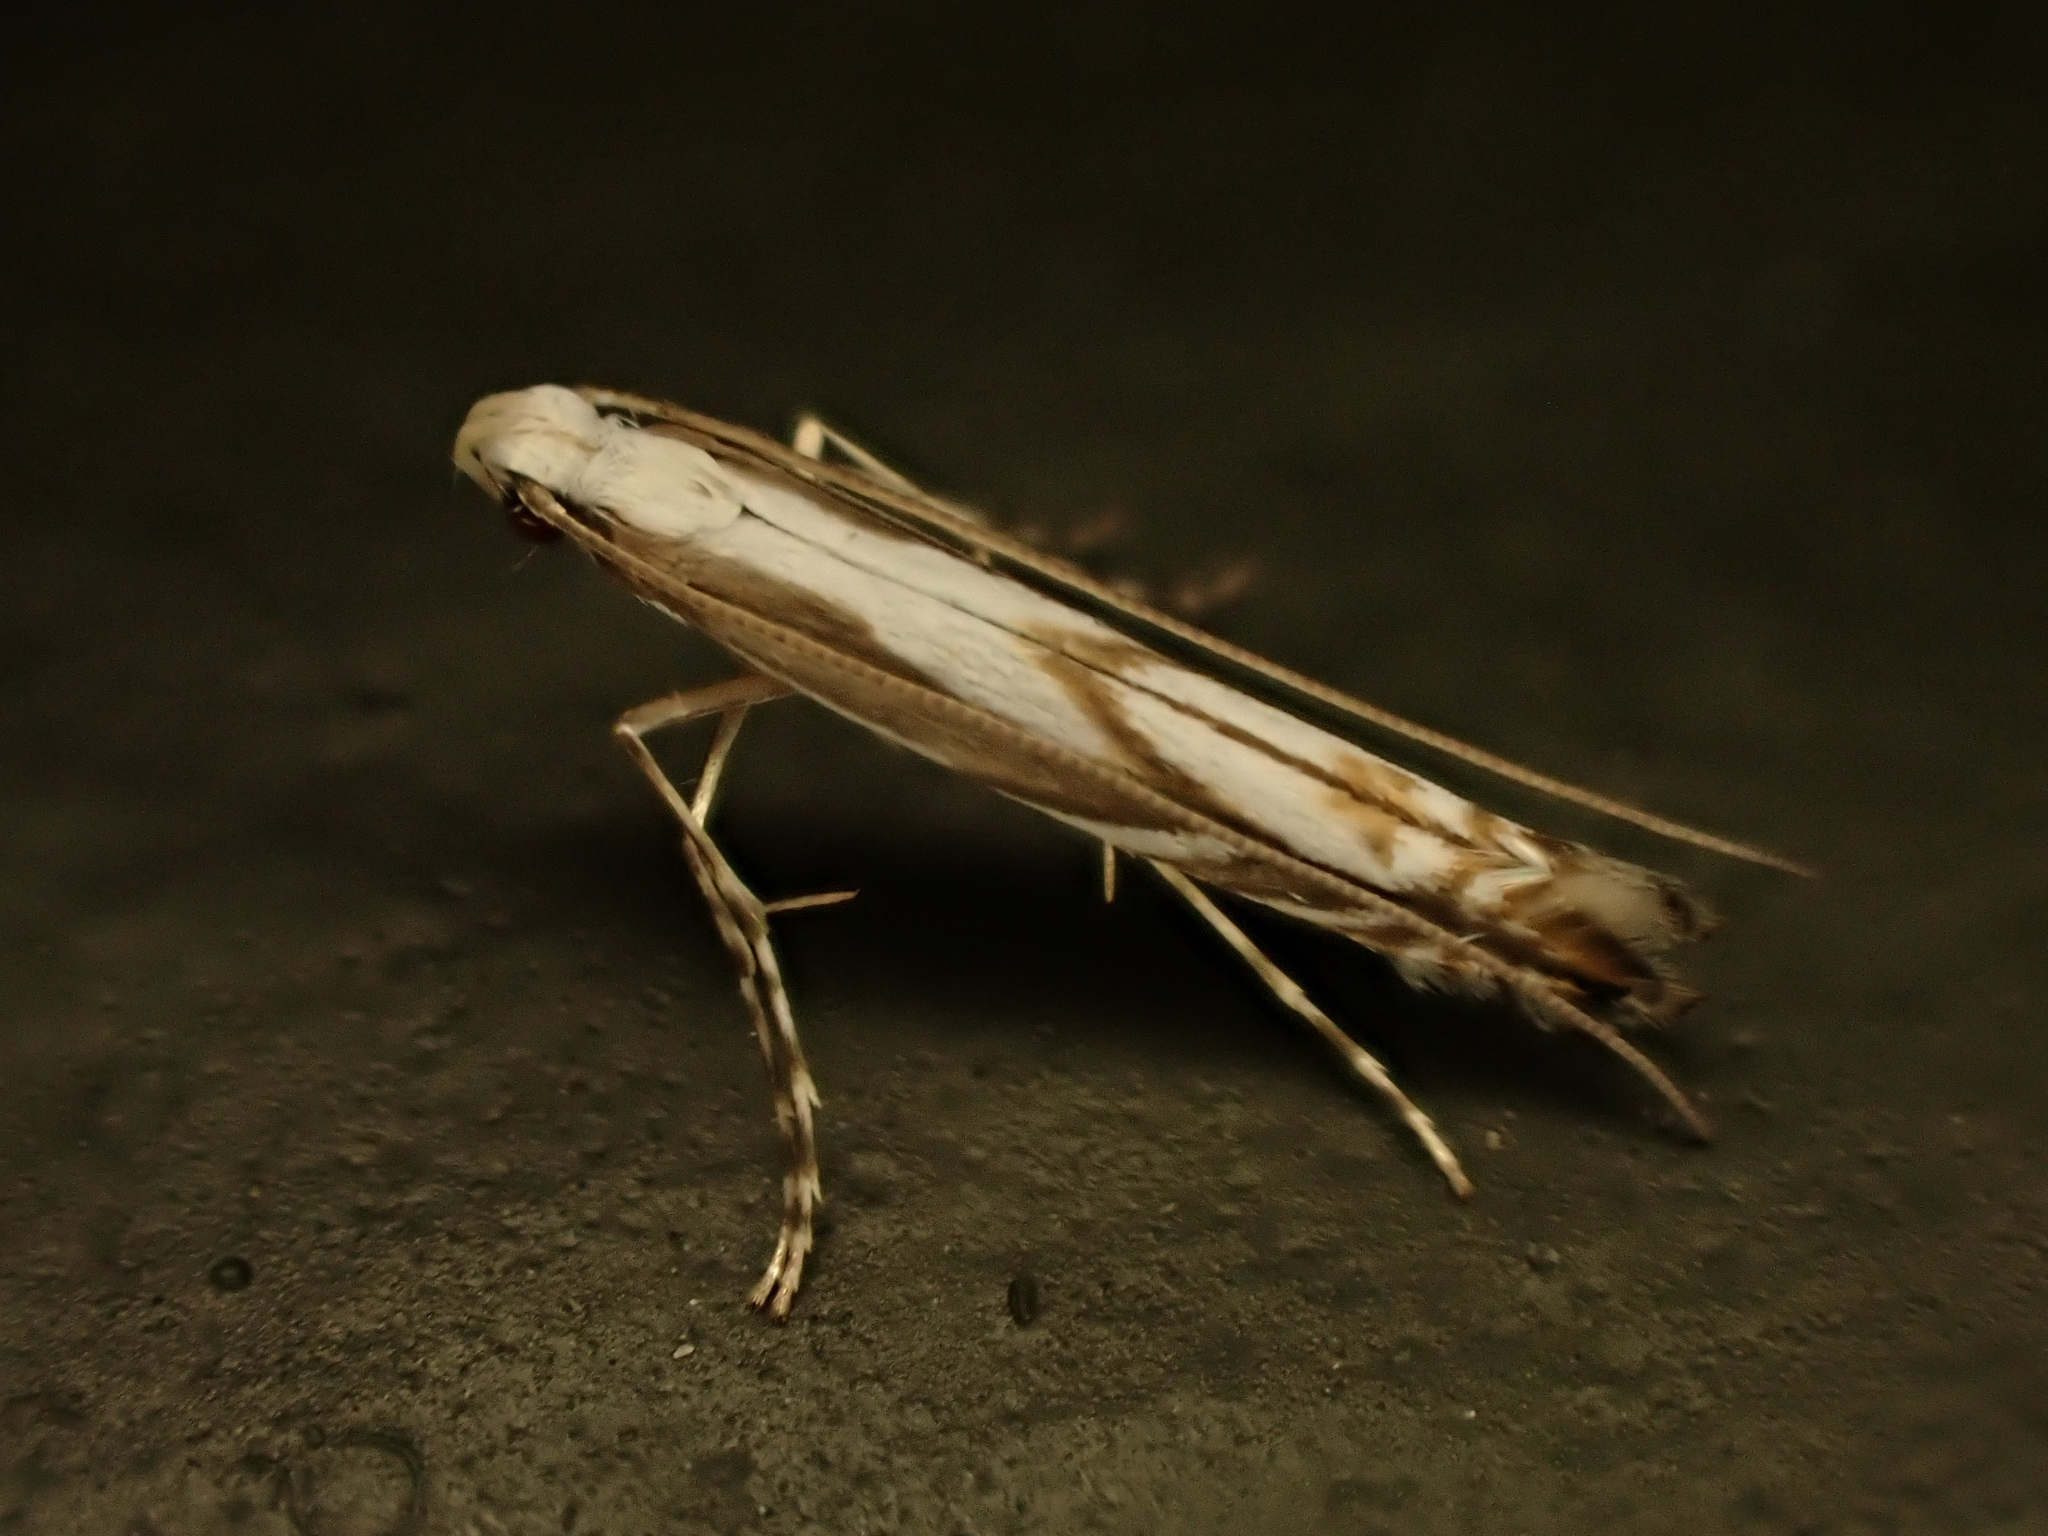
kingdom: Animalia
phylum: Arthropoda
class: Insecta
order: Lepidoptera
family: Gracillariidae
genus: Acrocercops
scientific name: Acrocercops leucotoma
